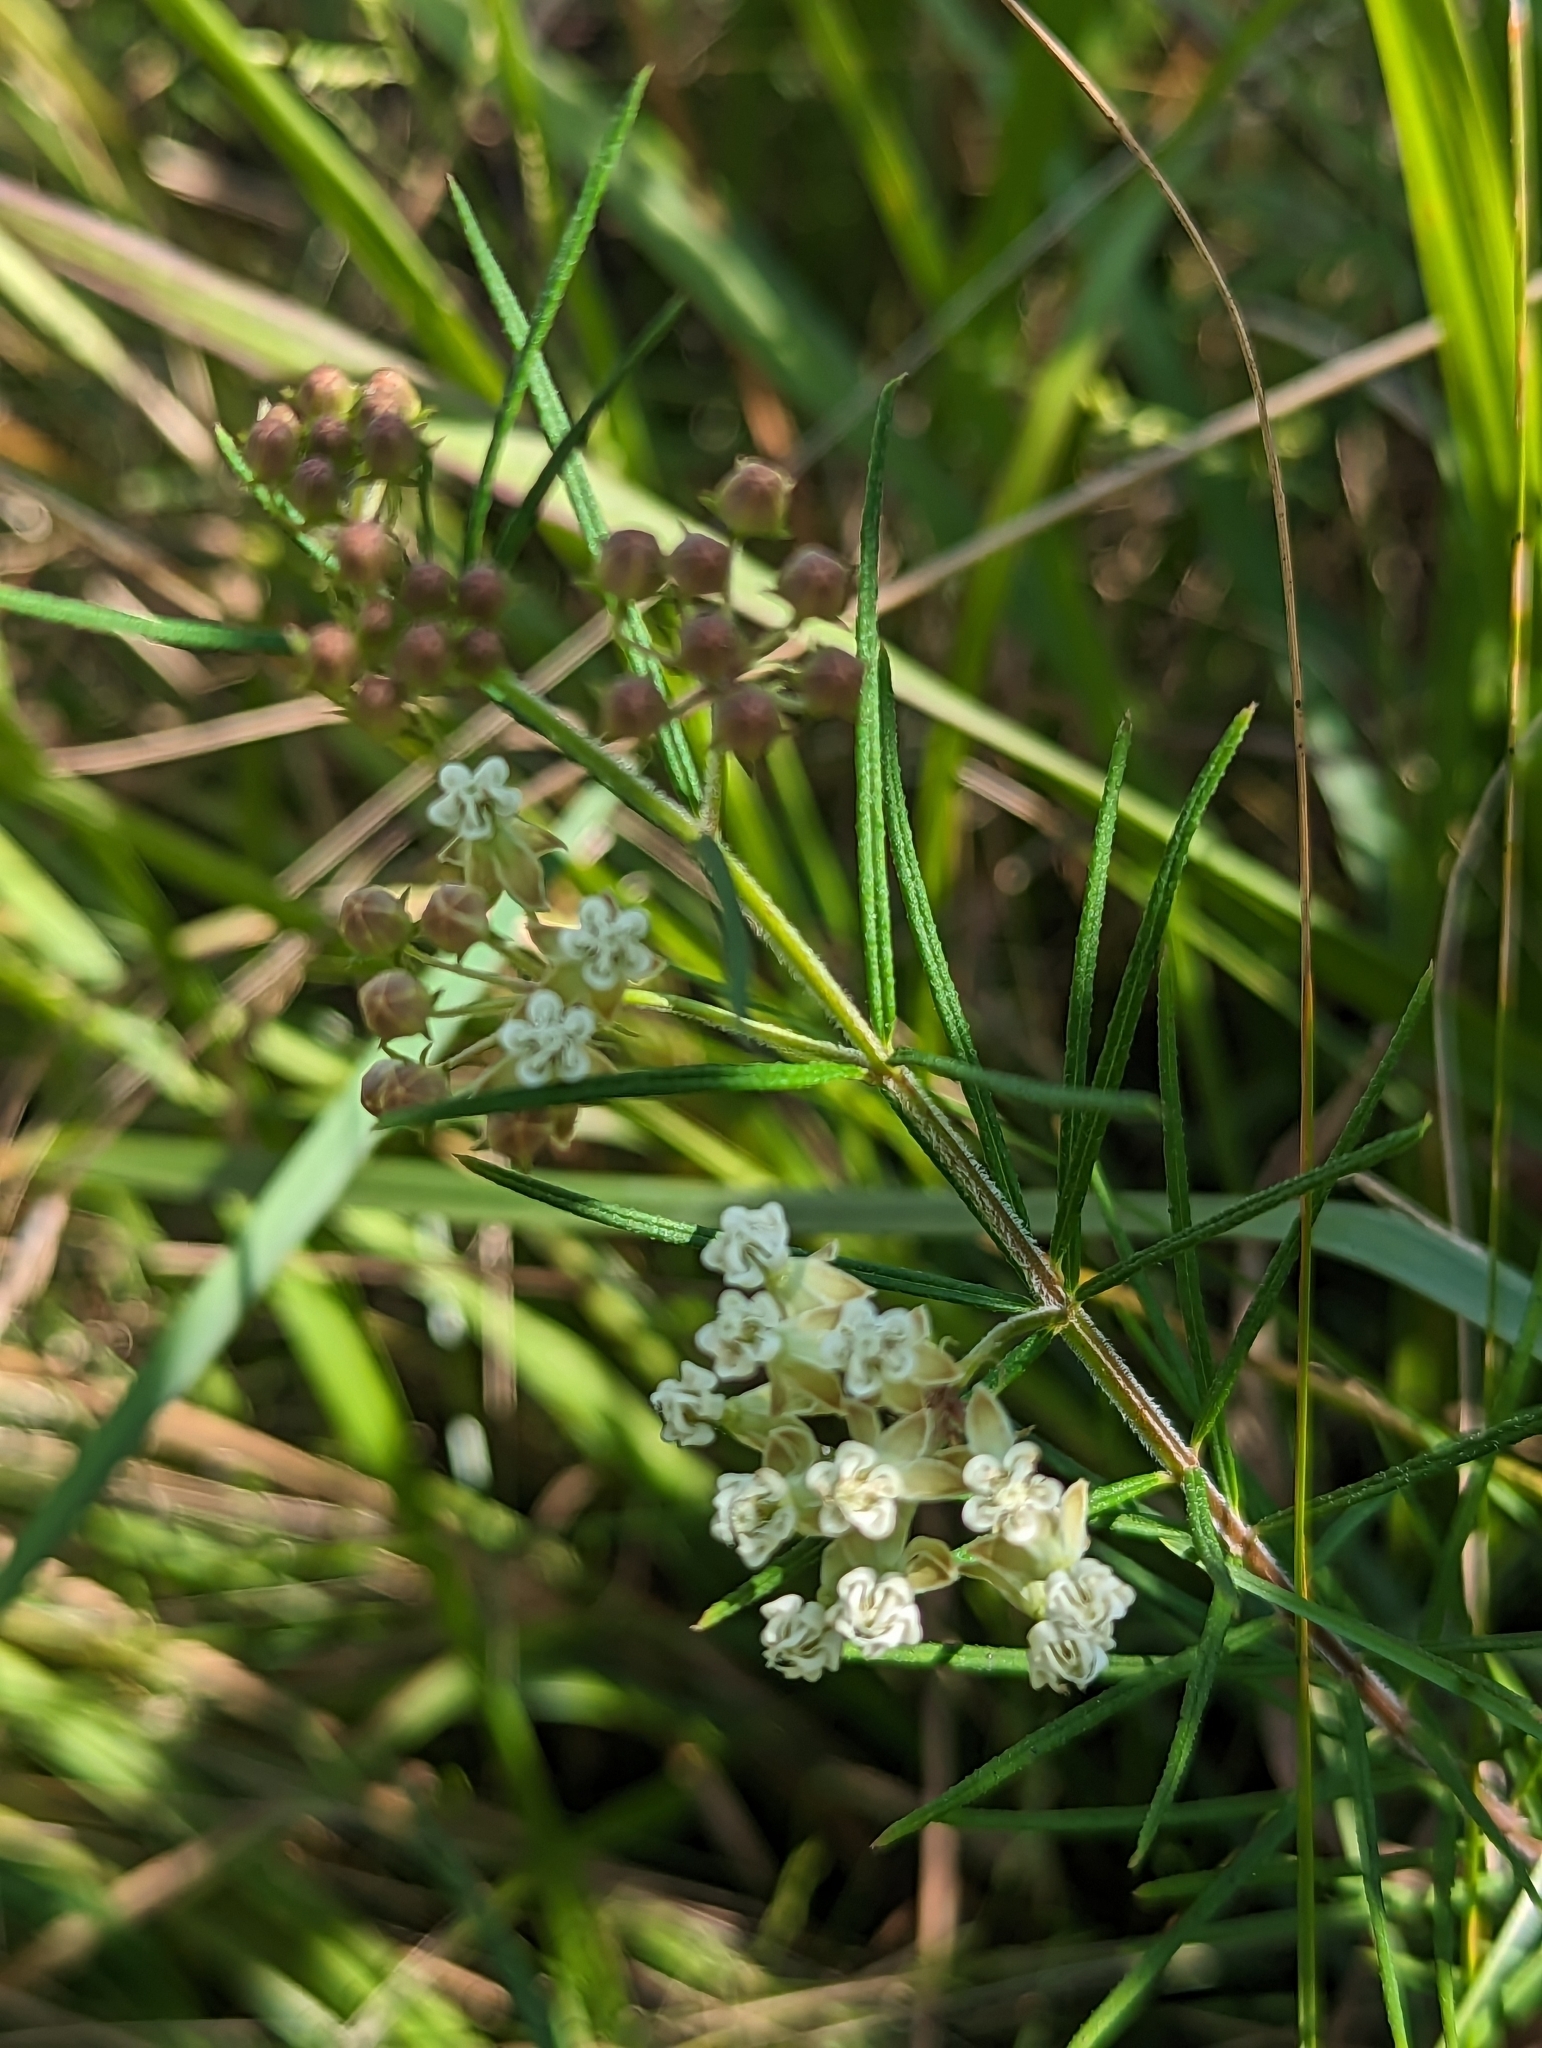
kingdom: Plantae
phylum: Tracheophyta
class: Magnoliopsida
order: Gentianales
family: Apocynaceae
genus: Asclepias
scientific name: Asclepias verticillata
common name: Eastern whorled milkweed
